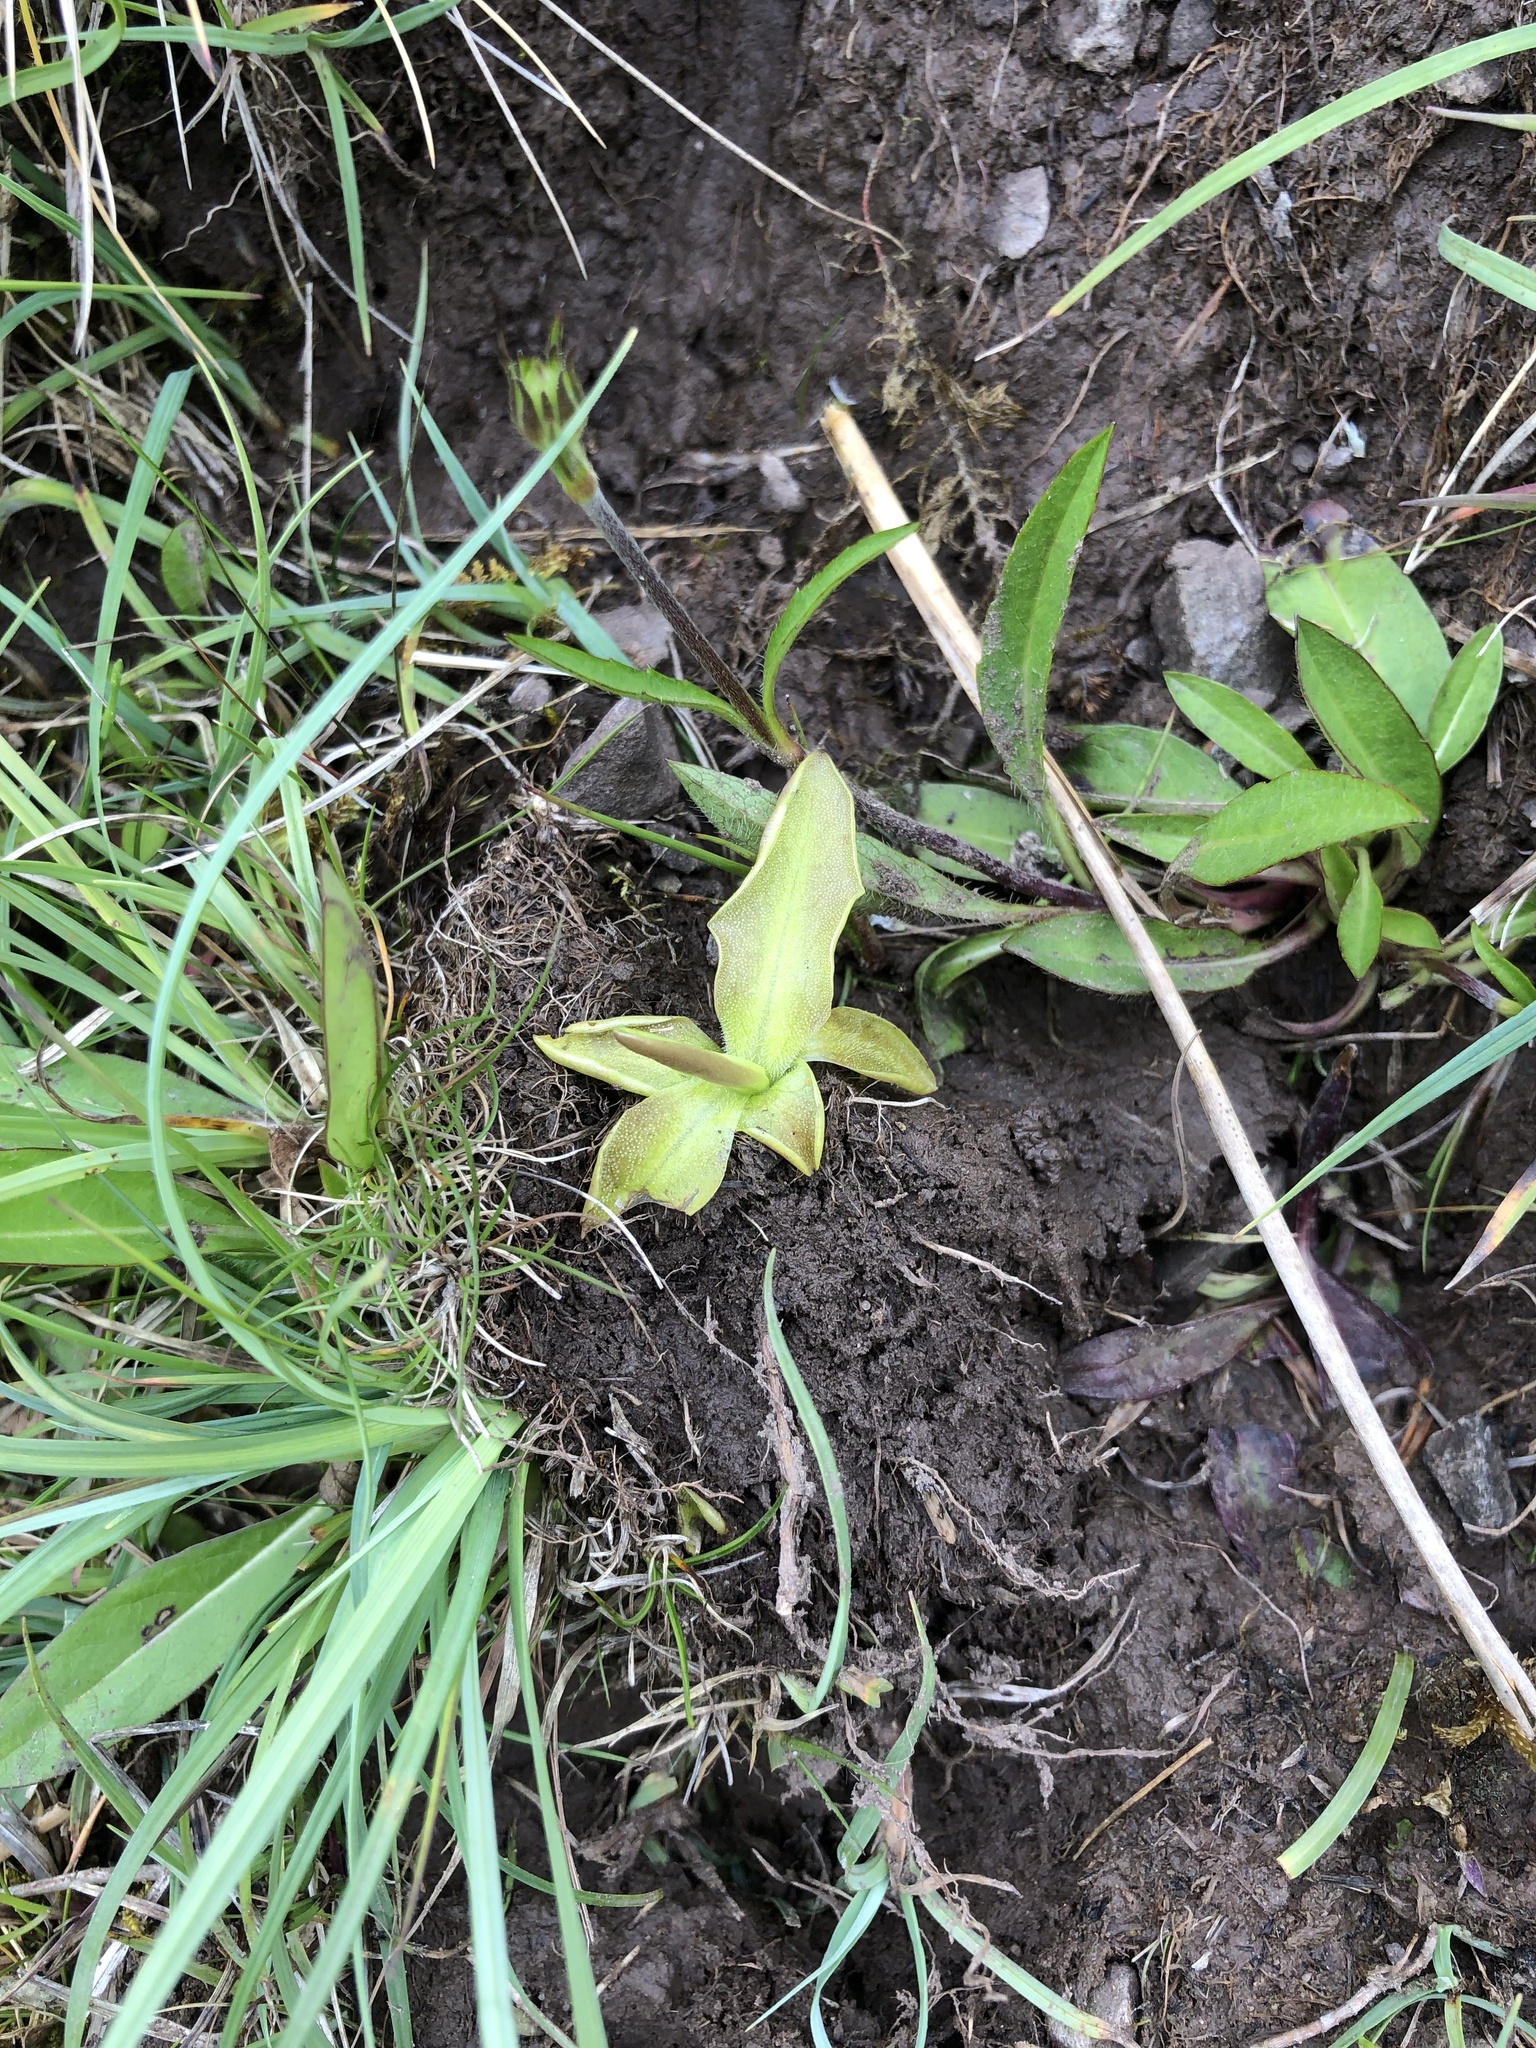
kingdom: Plantae
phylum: Tracheophyta
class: Magnoliopsida
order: Lamiales
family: Lentibulariaceae
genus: Pinguicula
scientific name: Pinguicula vulgaris
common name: Common butterwort
